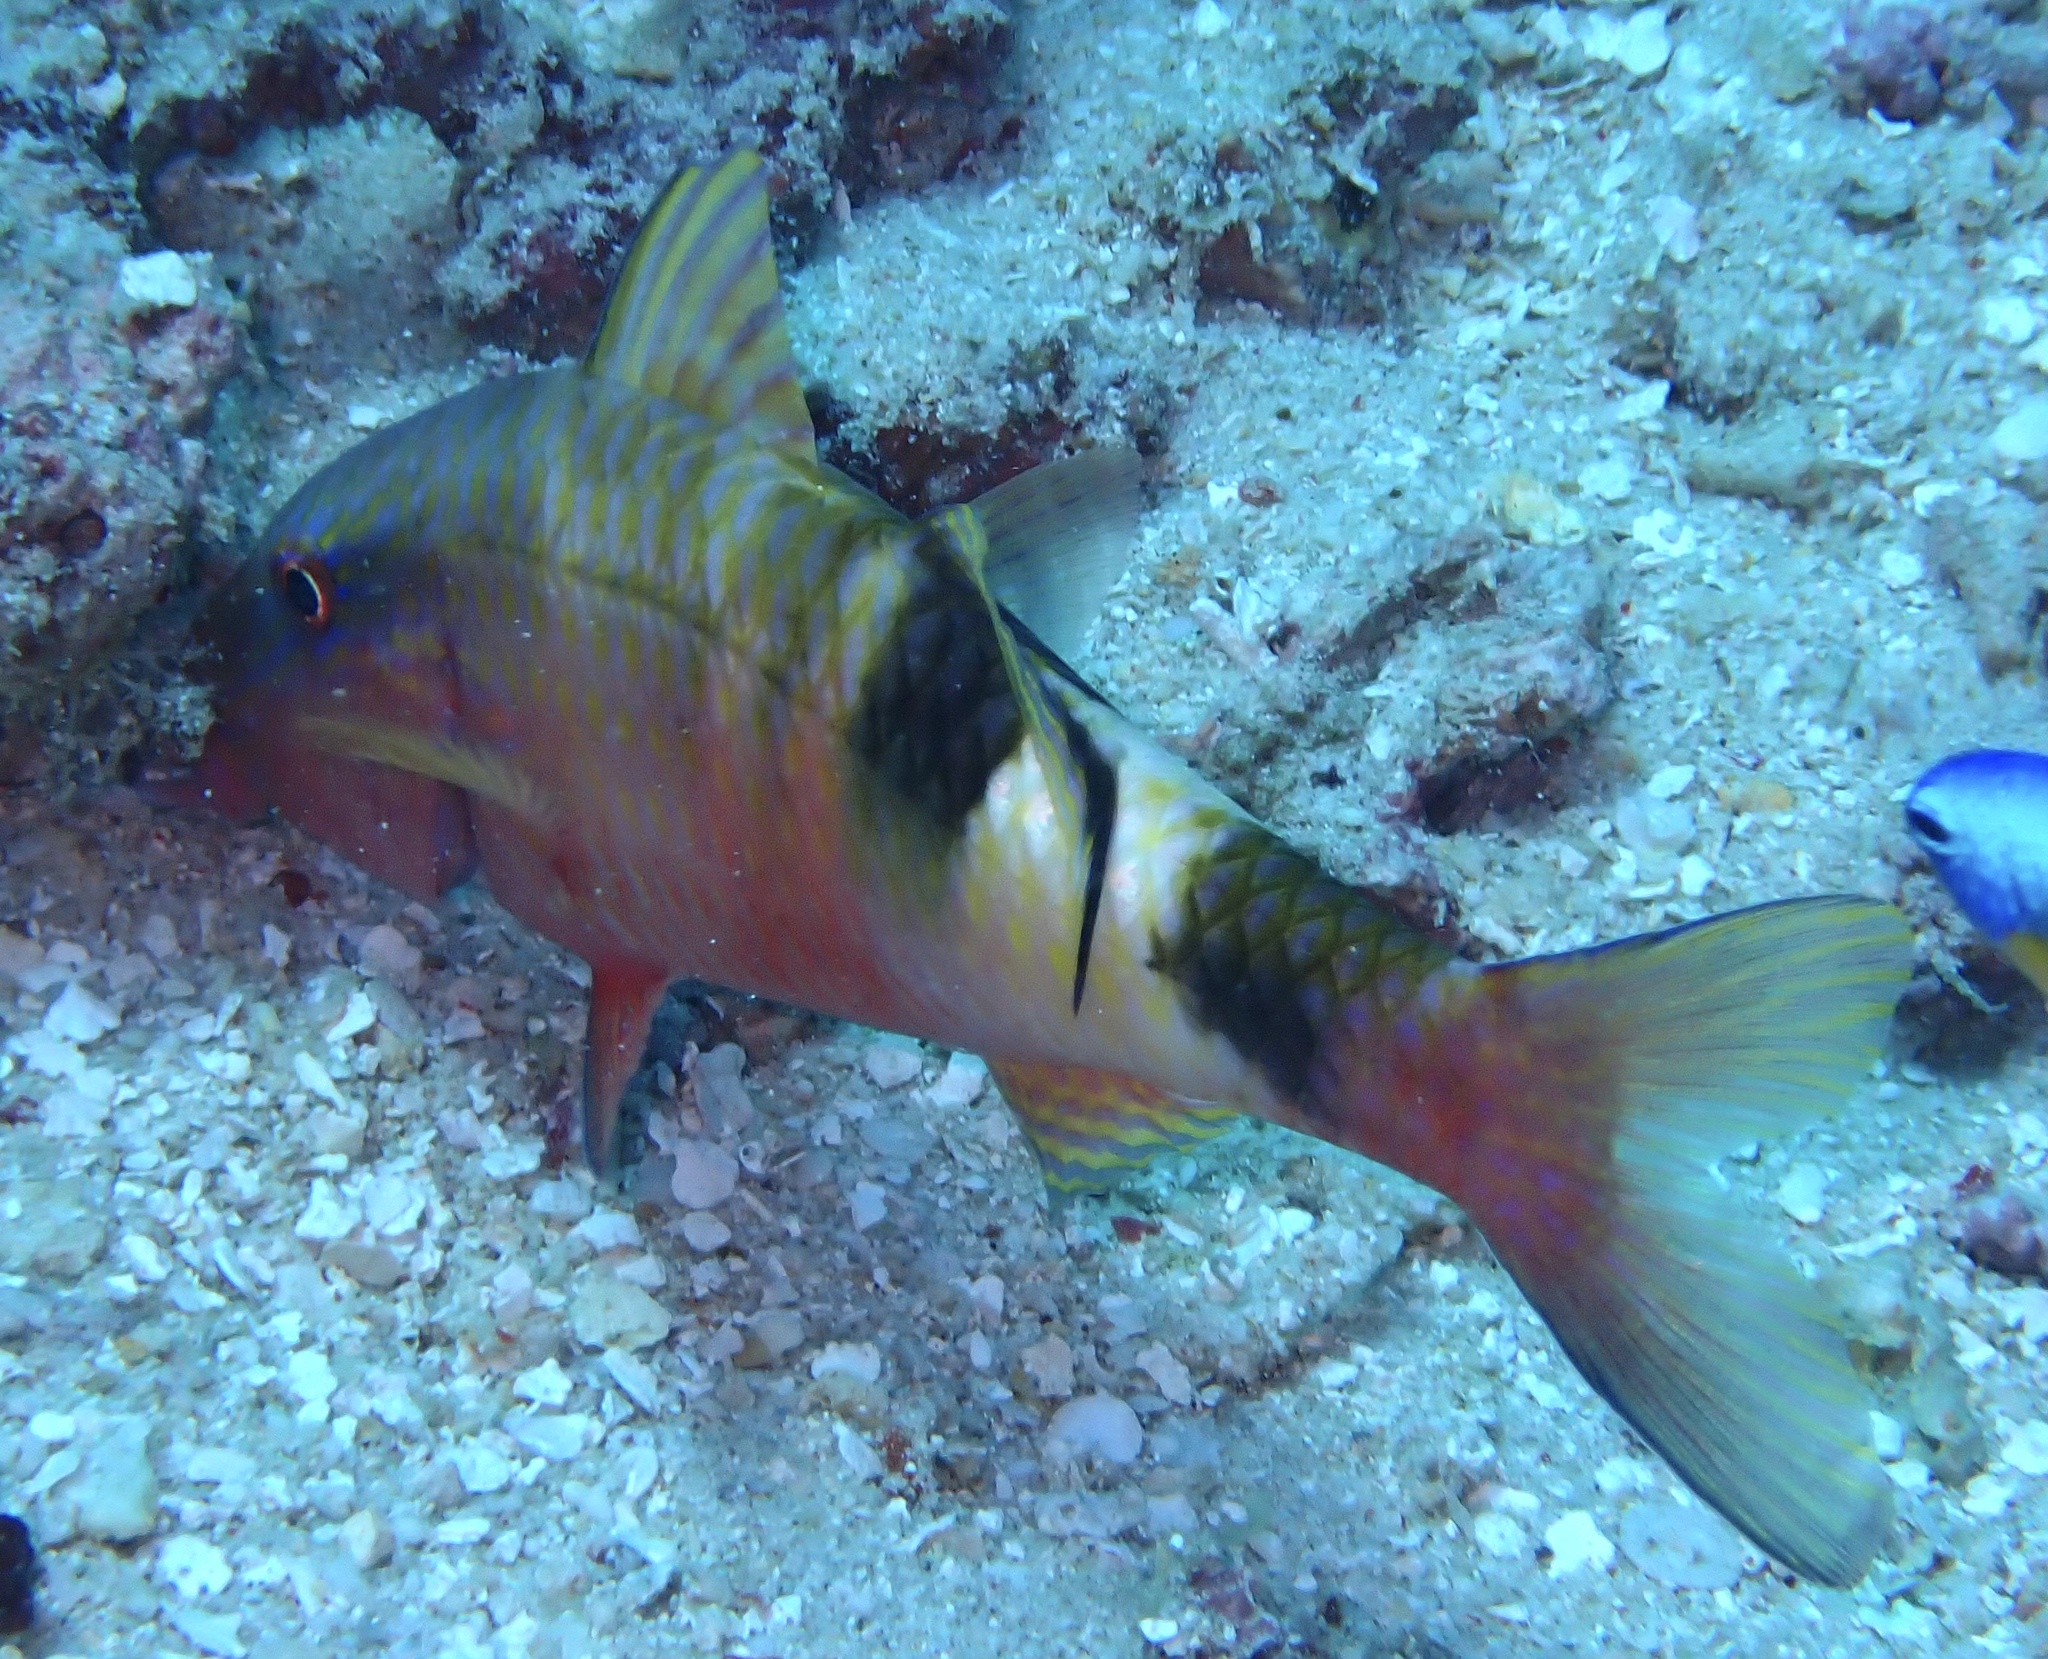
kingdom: Animalia
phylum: Chordata
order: Perciformes
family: Mullidae
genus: Parupeneus
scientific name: Parupeneus multifasciatus
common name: Manybar goatfish
